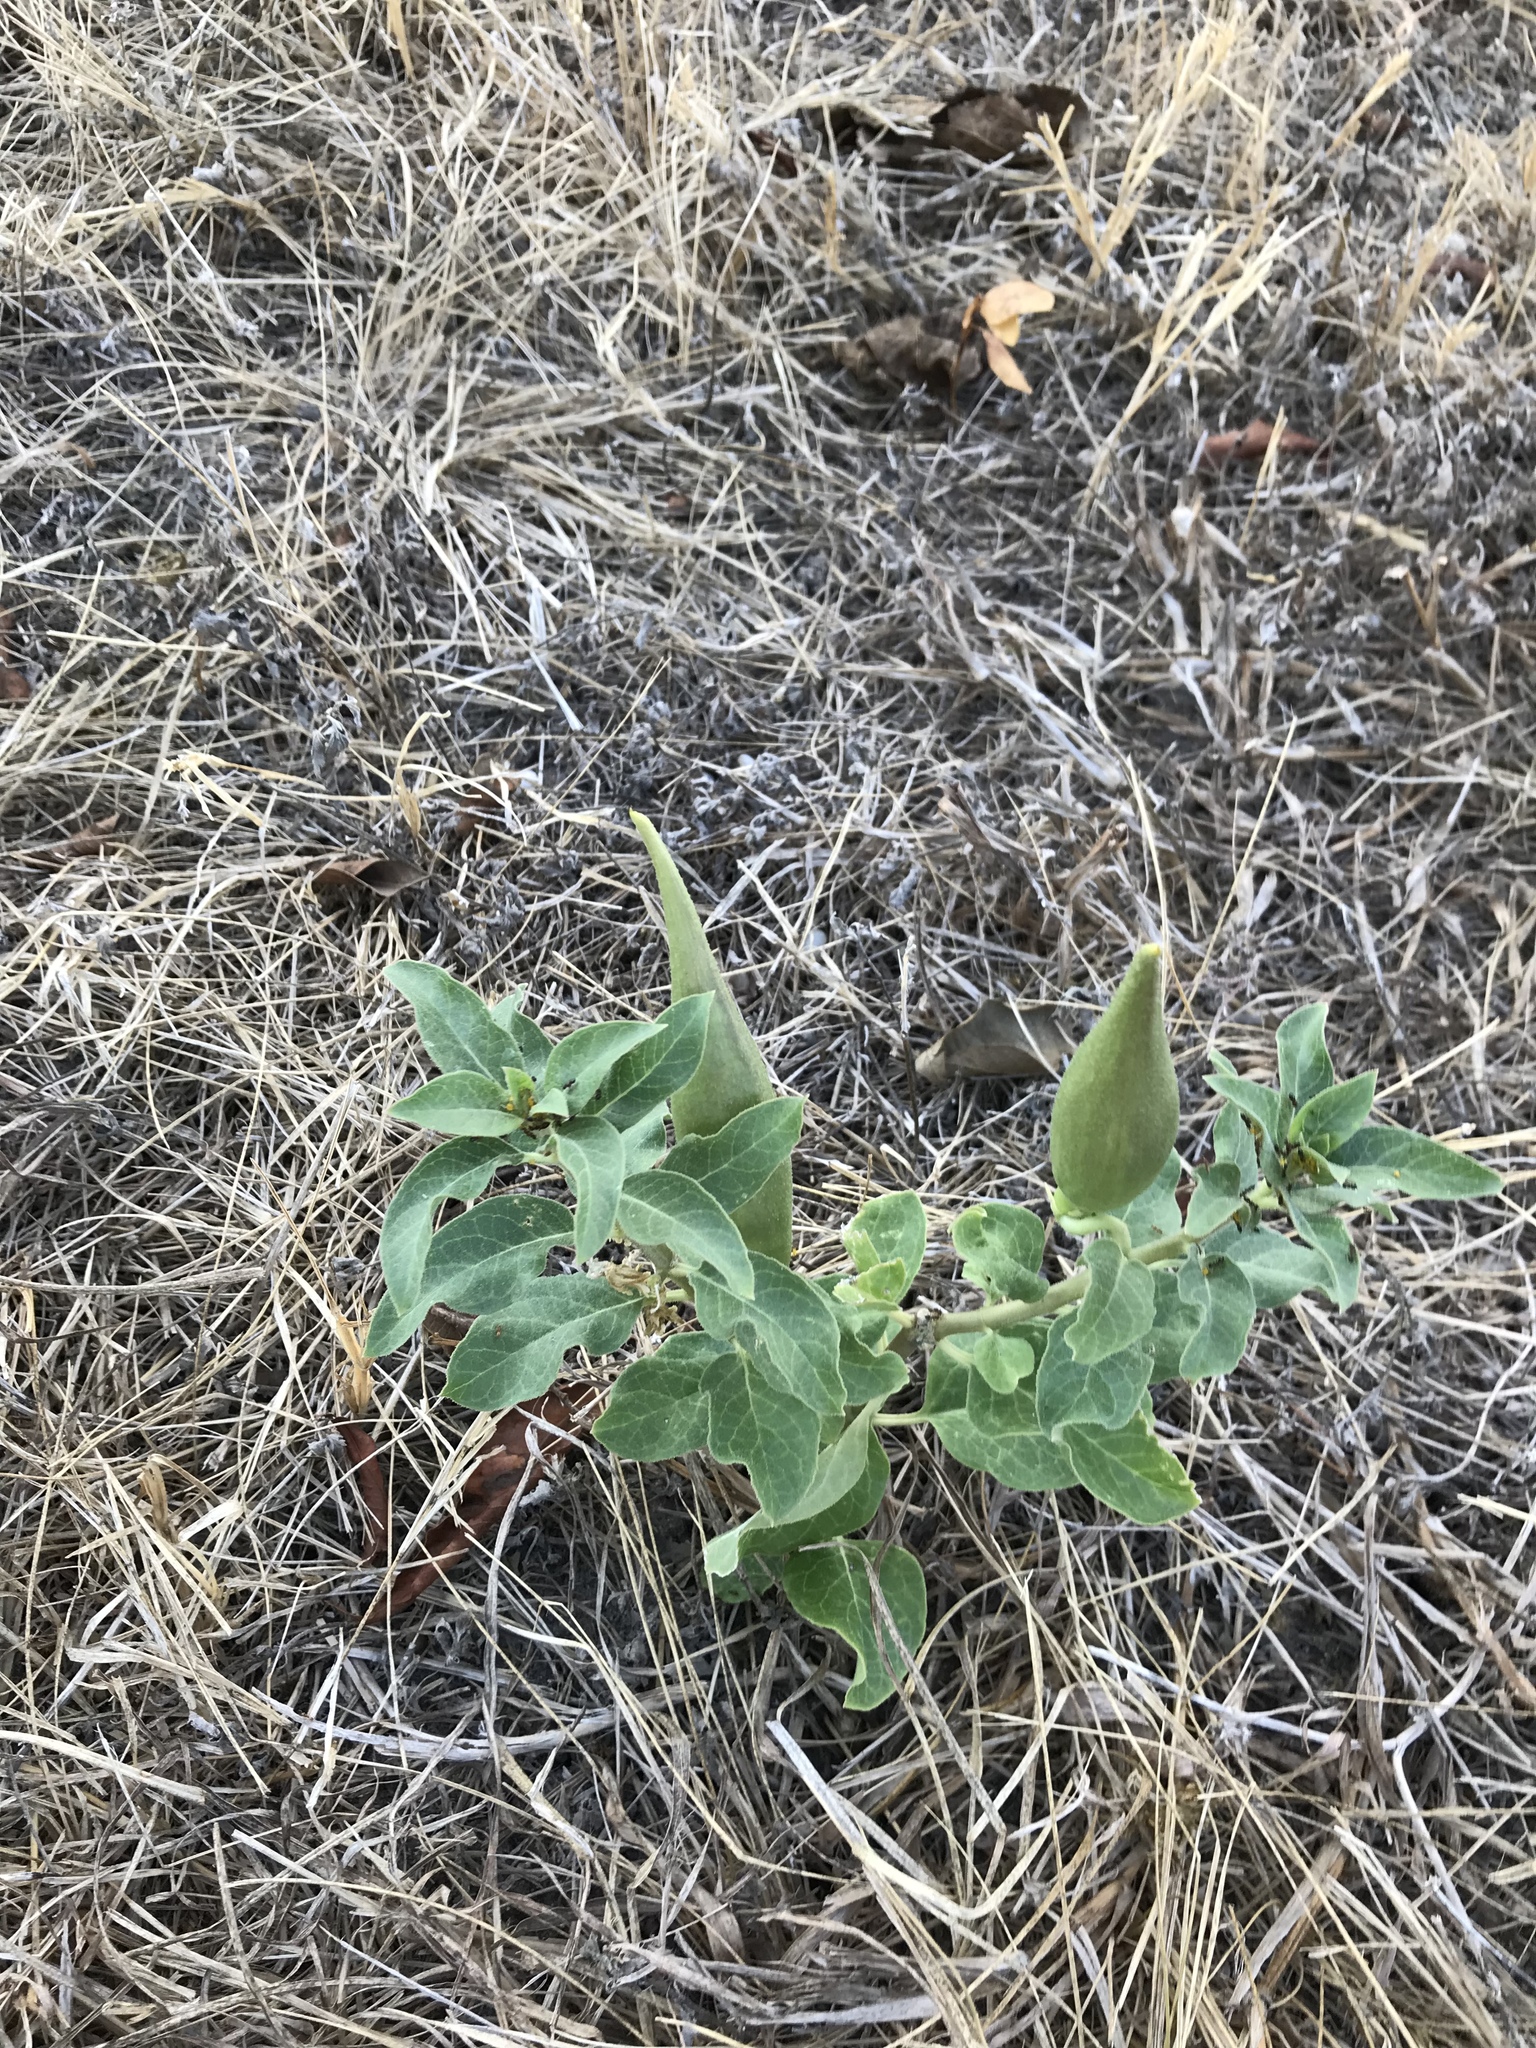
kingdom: Plantae
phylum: Tracheophyta
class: Magnoliopsida
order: Gentianales
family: Apocynaceae
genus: Asclepias
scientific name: Asclepias oenotheroides
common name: Zizotes milkweed
